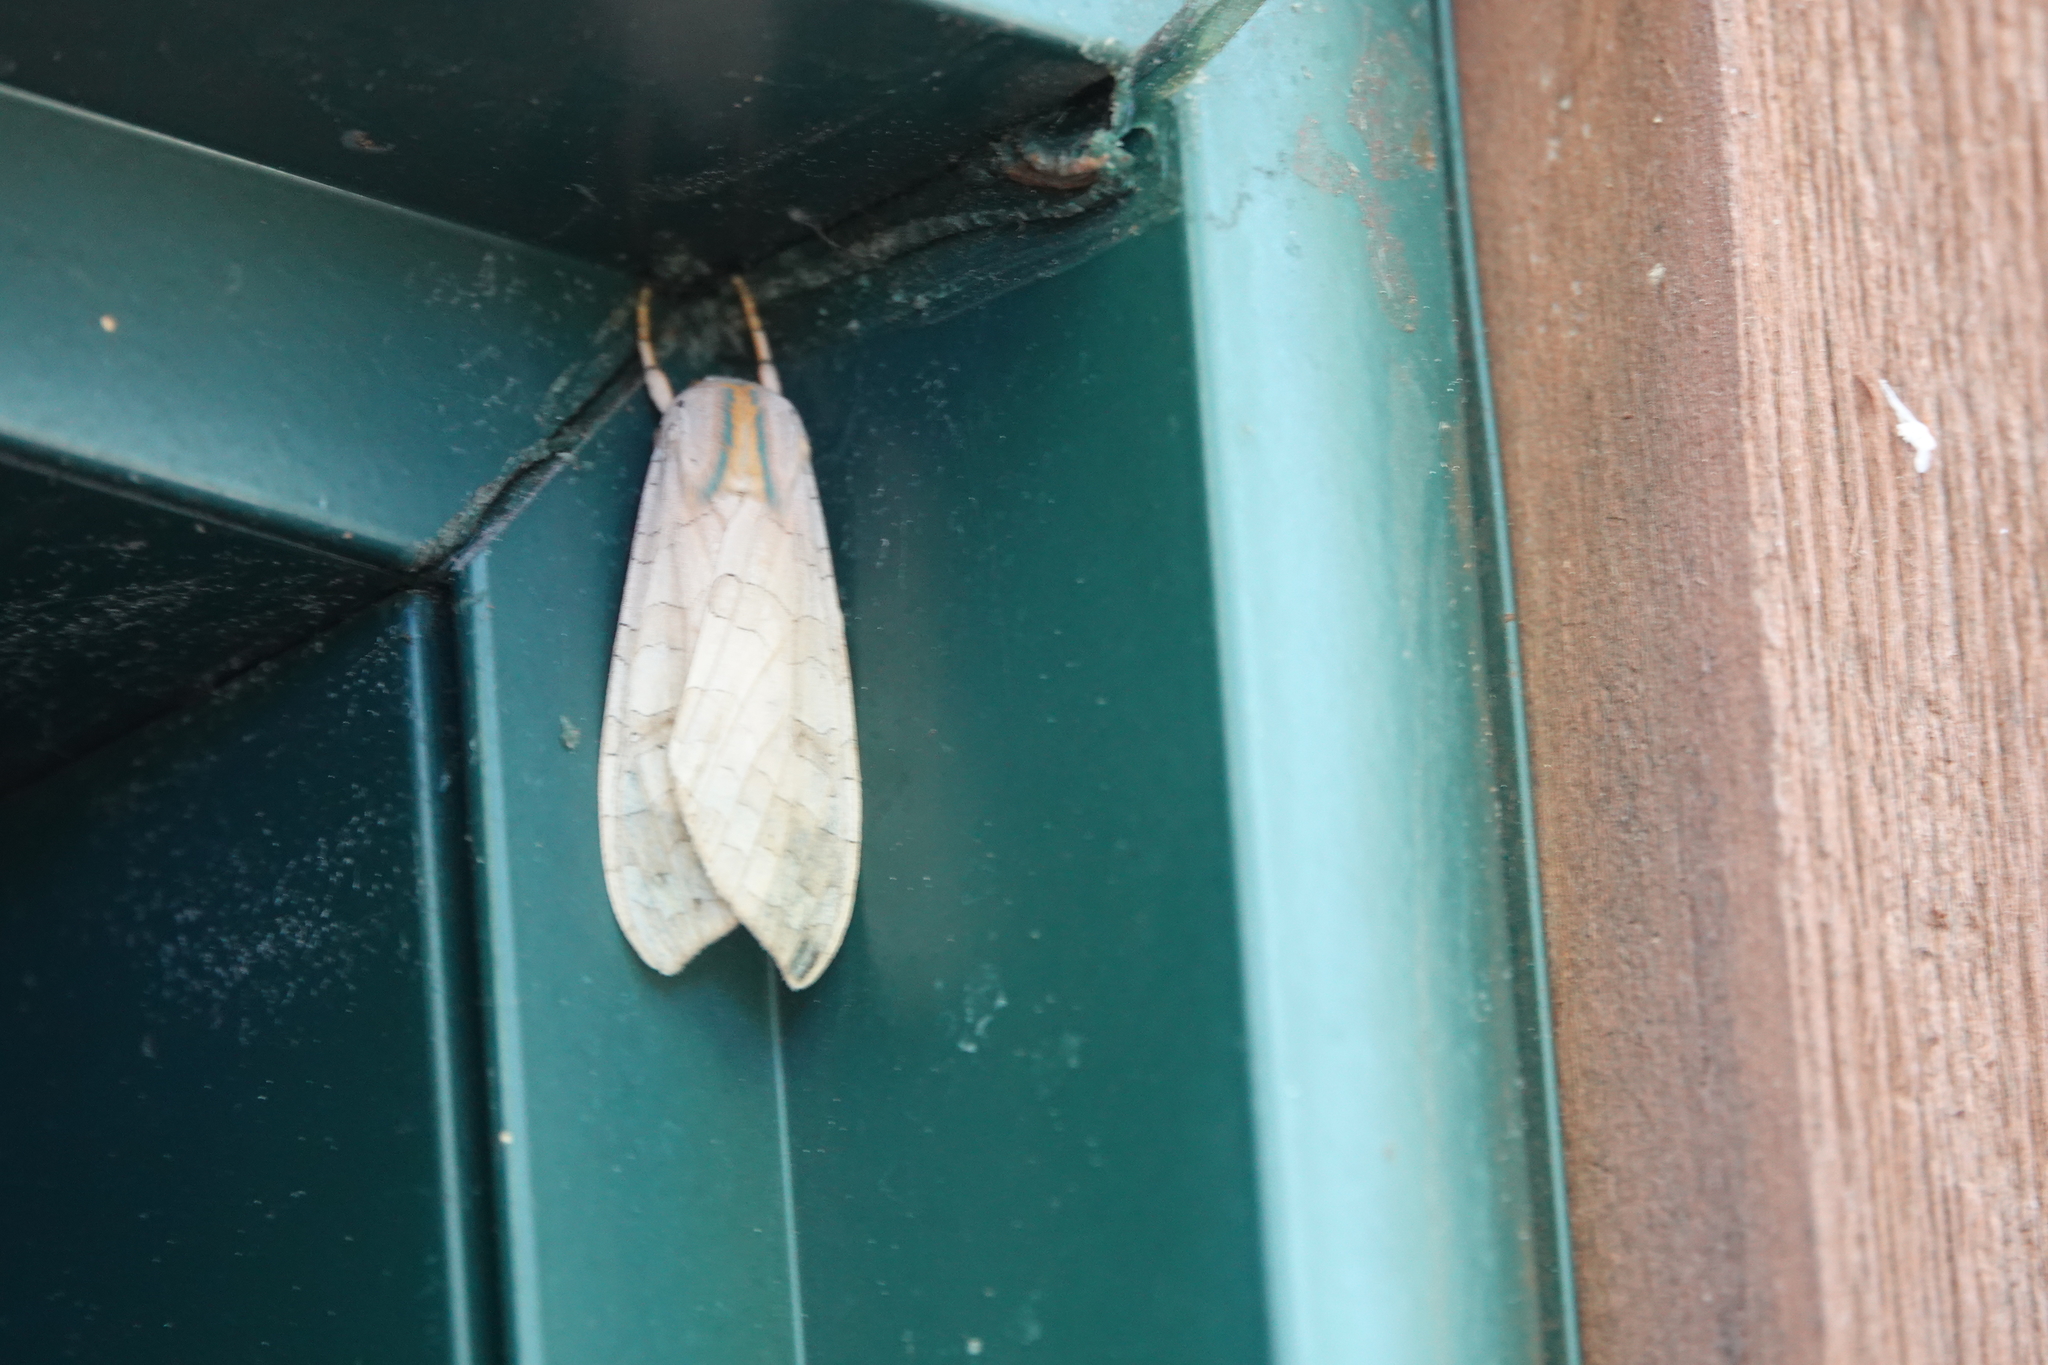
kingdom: Animalia
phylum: Arthropoda
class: Insecta
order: Lepidoptera
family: Erebidae
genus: Halysidota
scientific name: Halysidota
